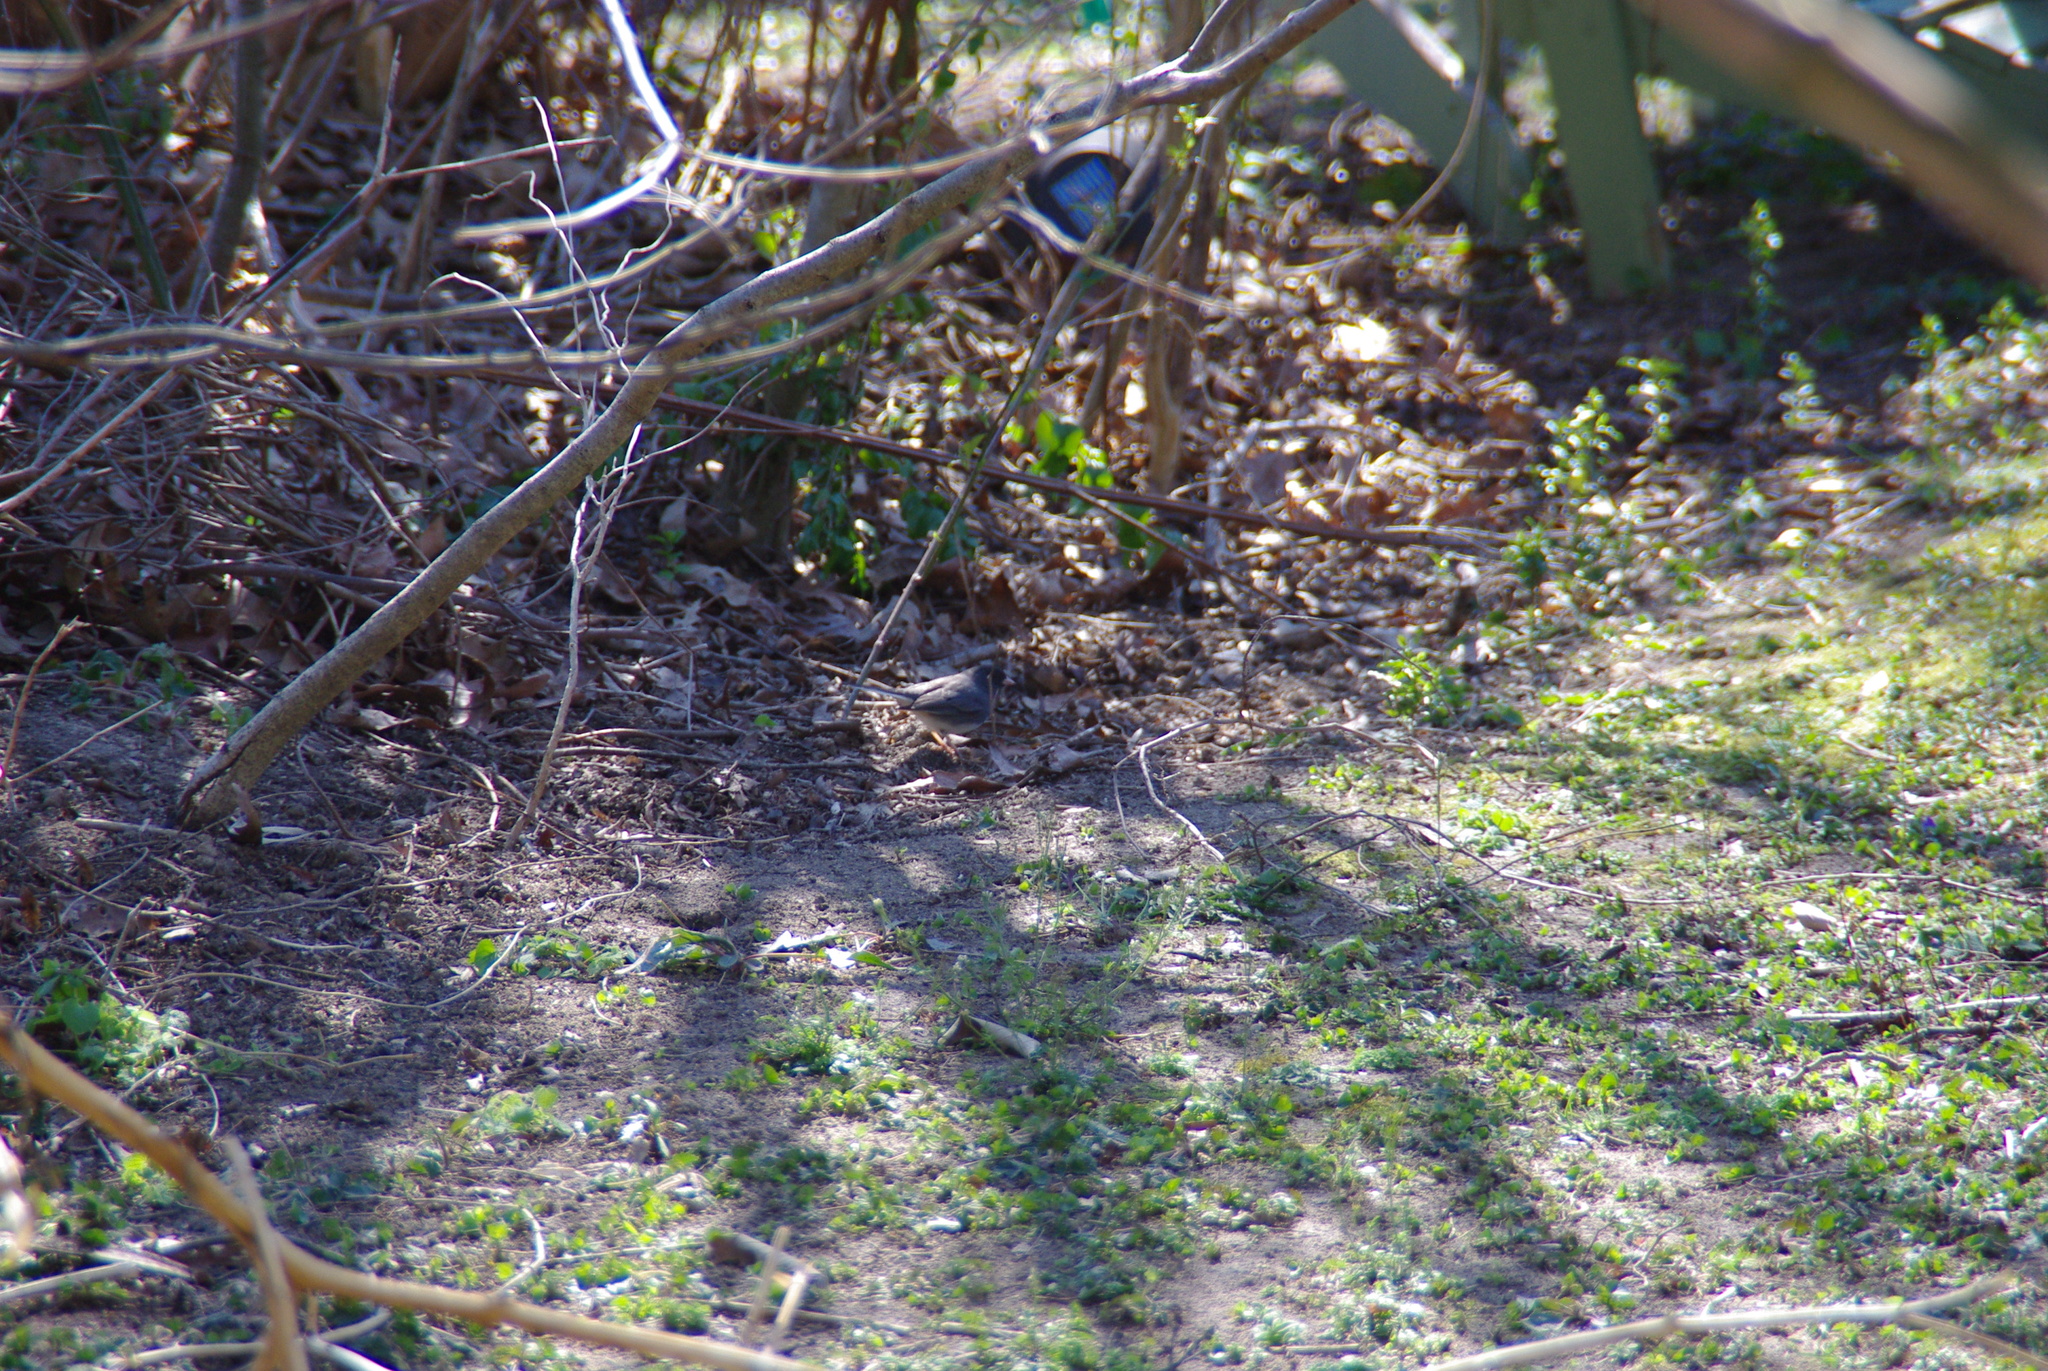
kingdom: Animalia
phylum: Chordata
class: Aves
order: Passeriformes
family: Passerellidae
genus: Junco
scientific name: Junco hyemalis
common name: Dark-eyed junco
